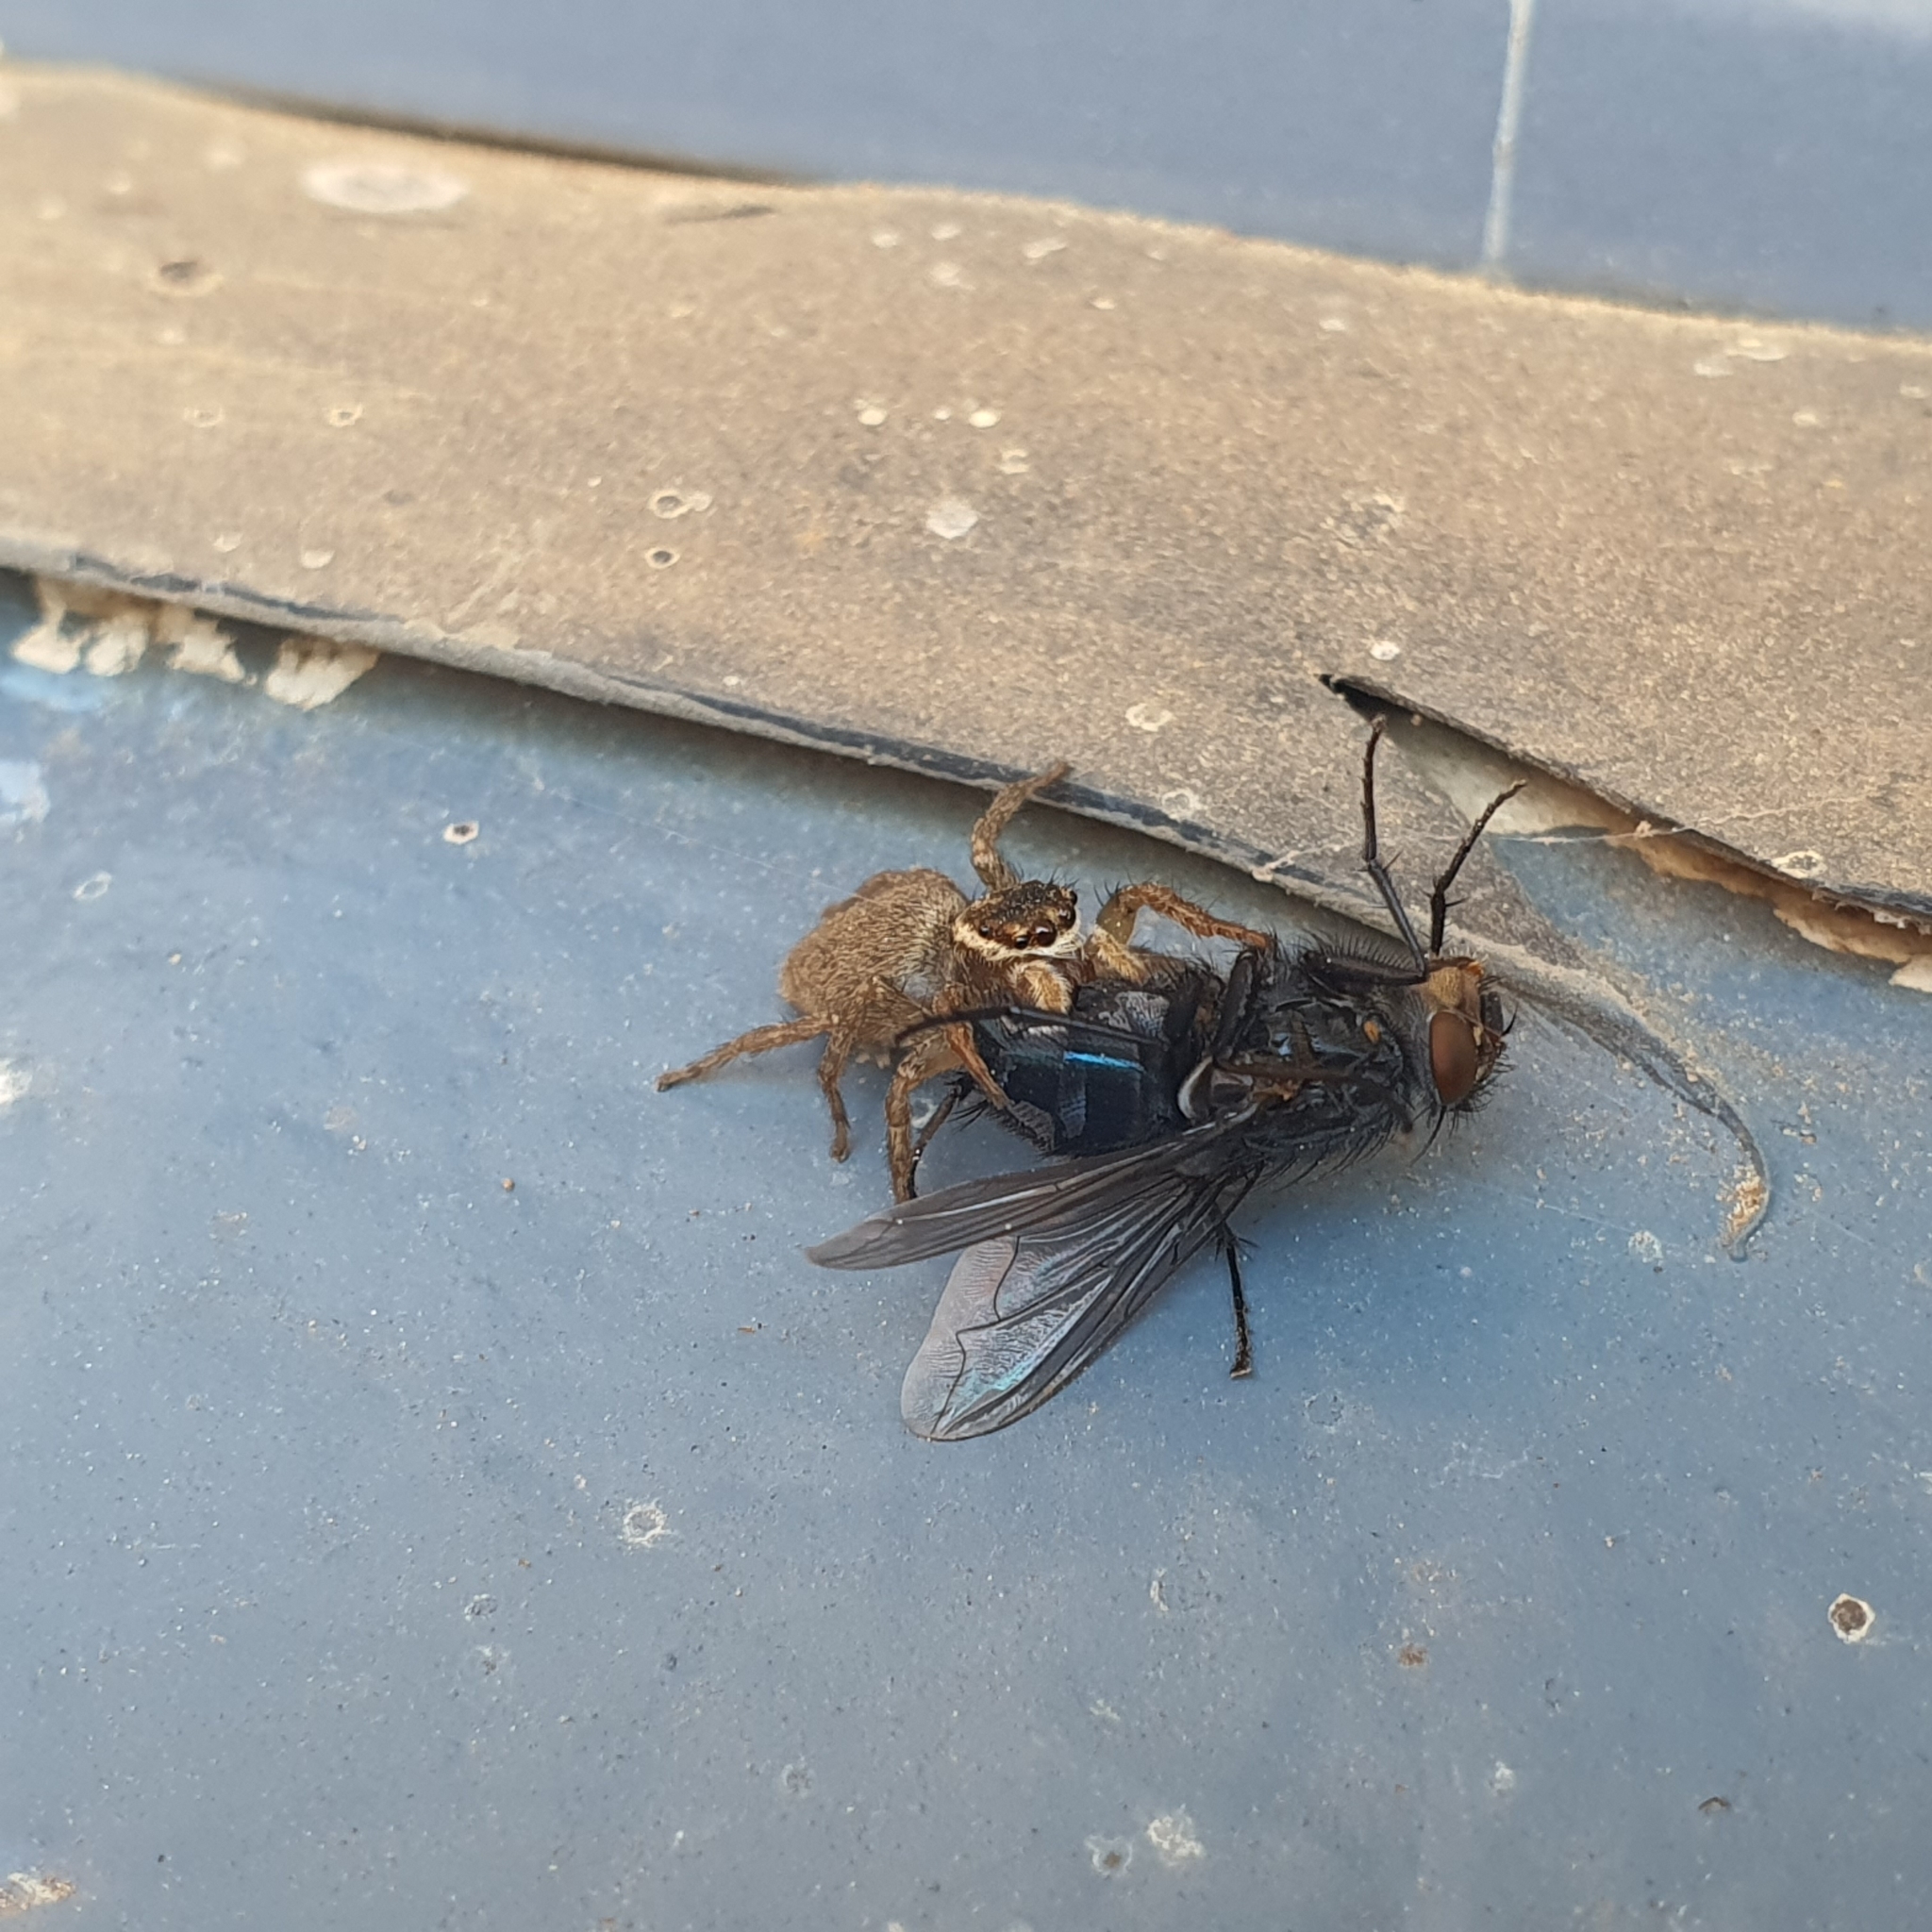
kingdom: Animalia
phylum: Arthropoda
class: Arachnida
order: Araneae
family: Salticidae
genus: Maratus
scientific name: Maratus griseus
